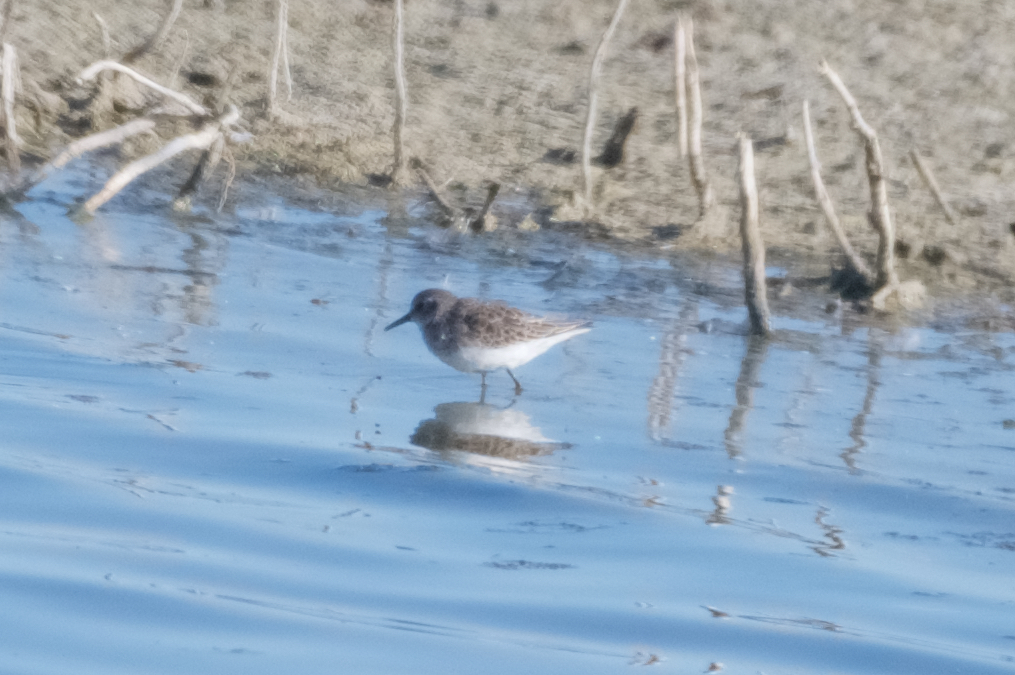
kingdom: Animalia
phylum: Chordata
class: Aves
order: Charadriiformes
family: Scolopacidae
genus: Calidris
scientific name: Calidris minutilla
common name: Least sandpiper
